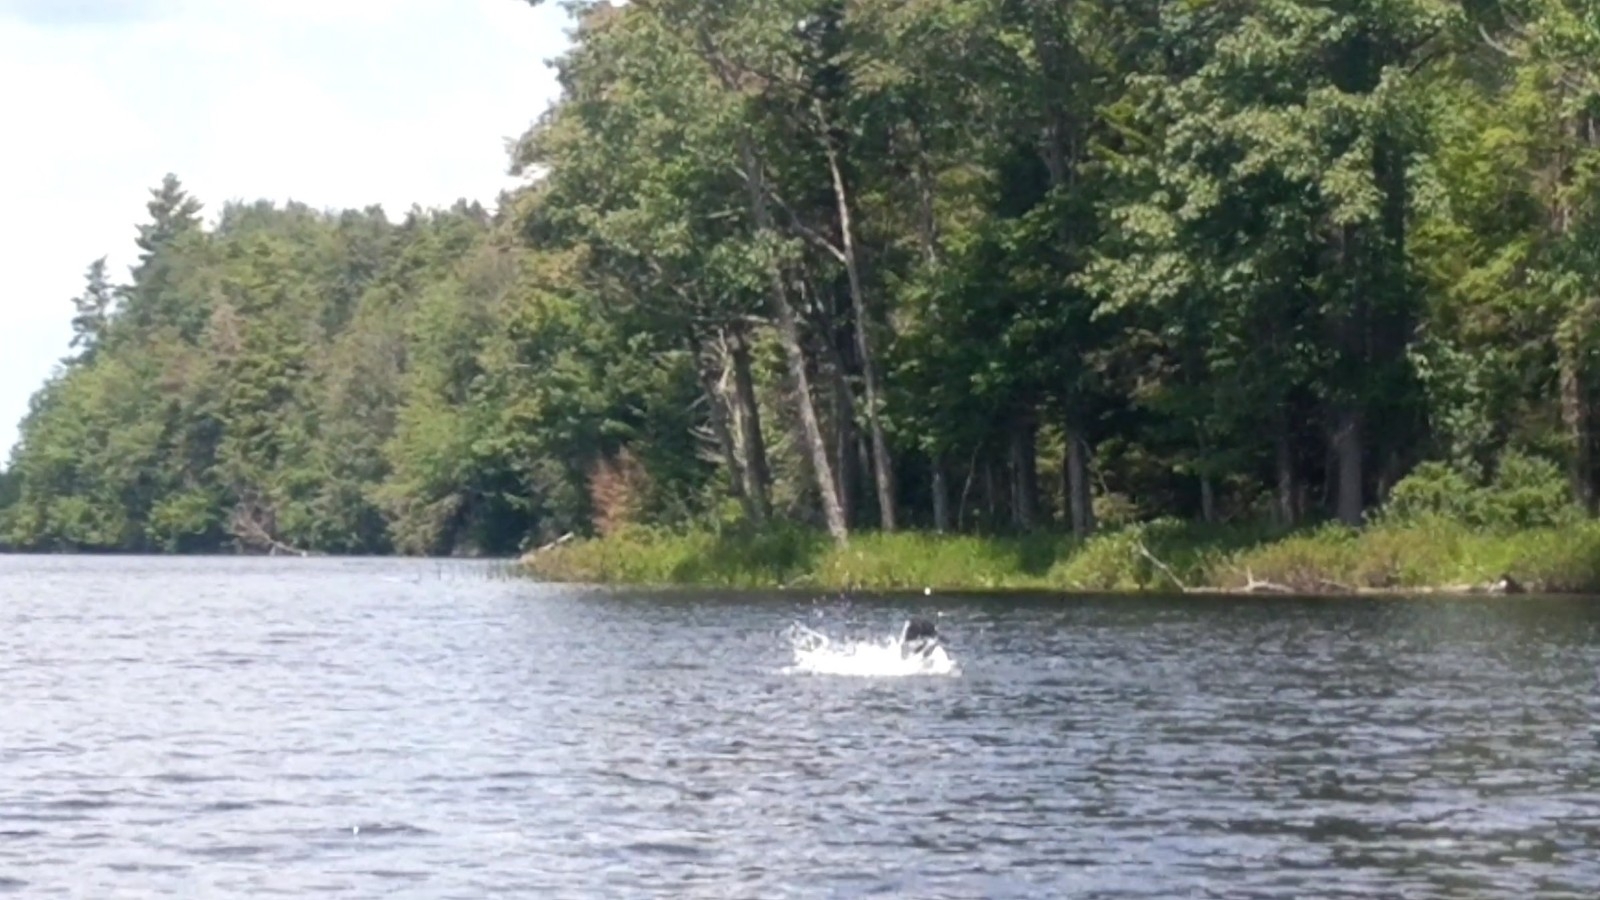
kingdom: Animalia
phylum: Chordata
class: Aves
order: Gaviiformes
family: Gaviidae
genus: Gavia
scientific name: Gavia immer
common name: Common loon
